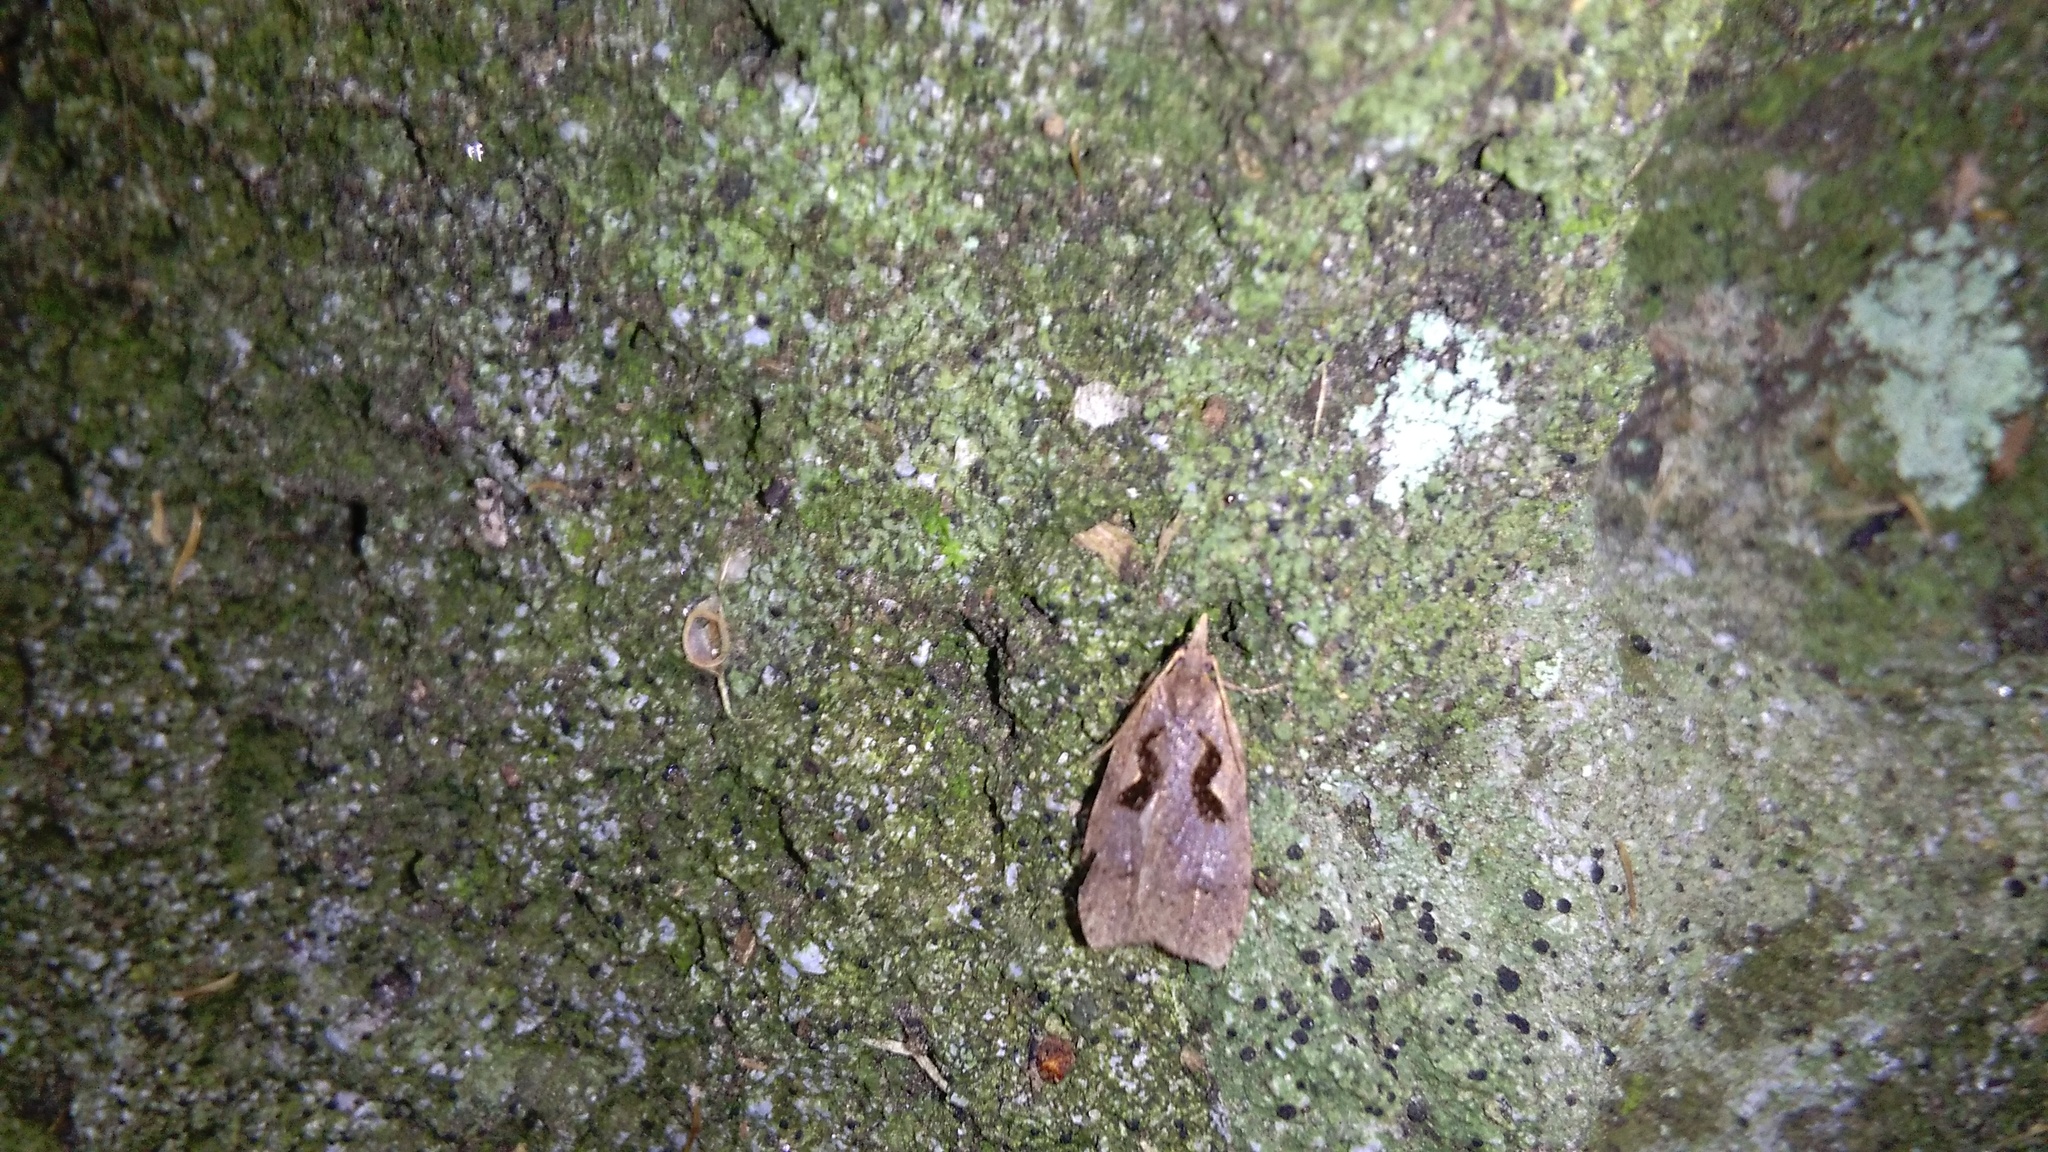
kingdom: Animalia
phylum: Arthropoda
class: Insecta
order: Lepidoptera
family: Tortricidae
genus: Cnephasia
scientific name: Cnephasia jactatana
